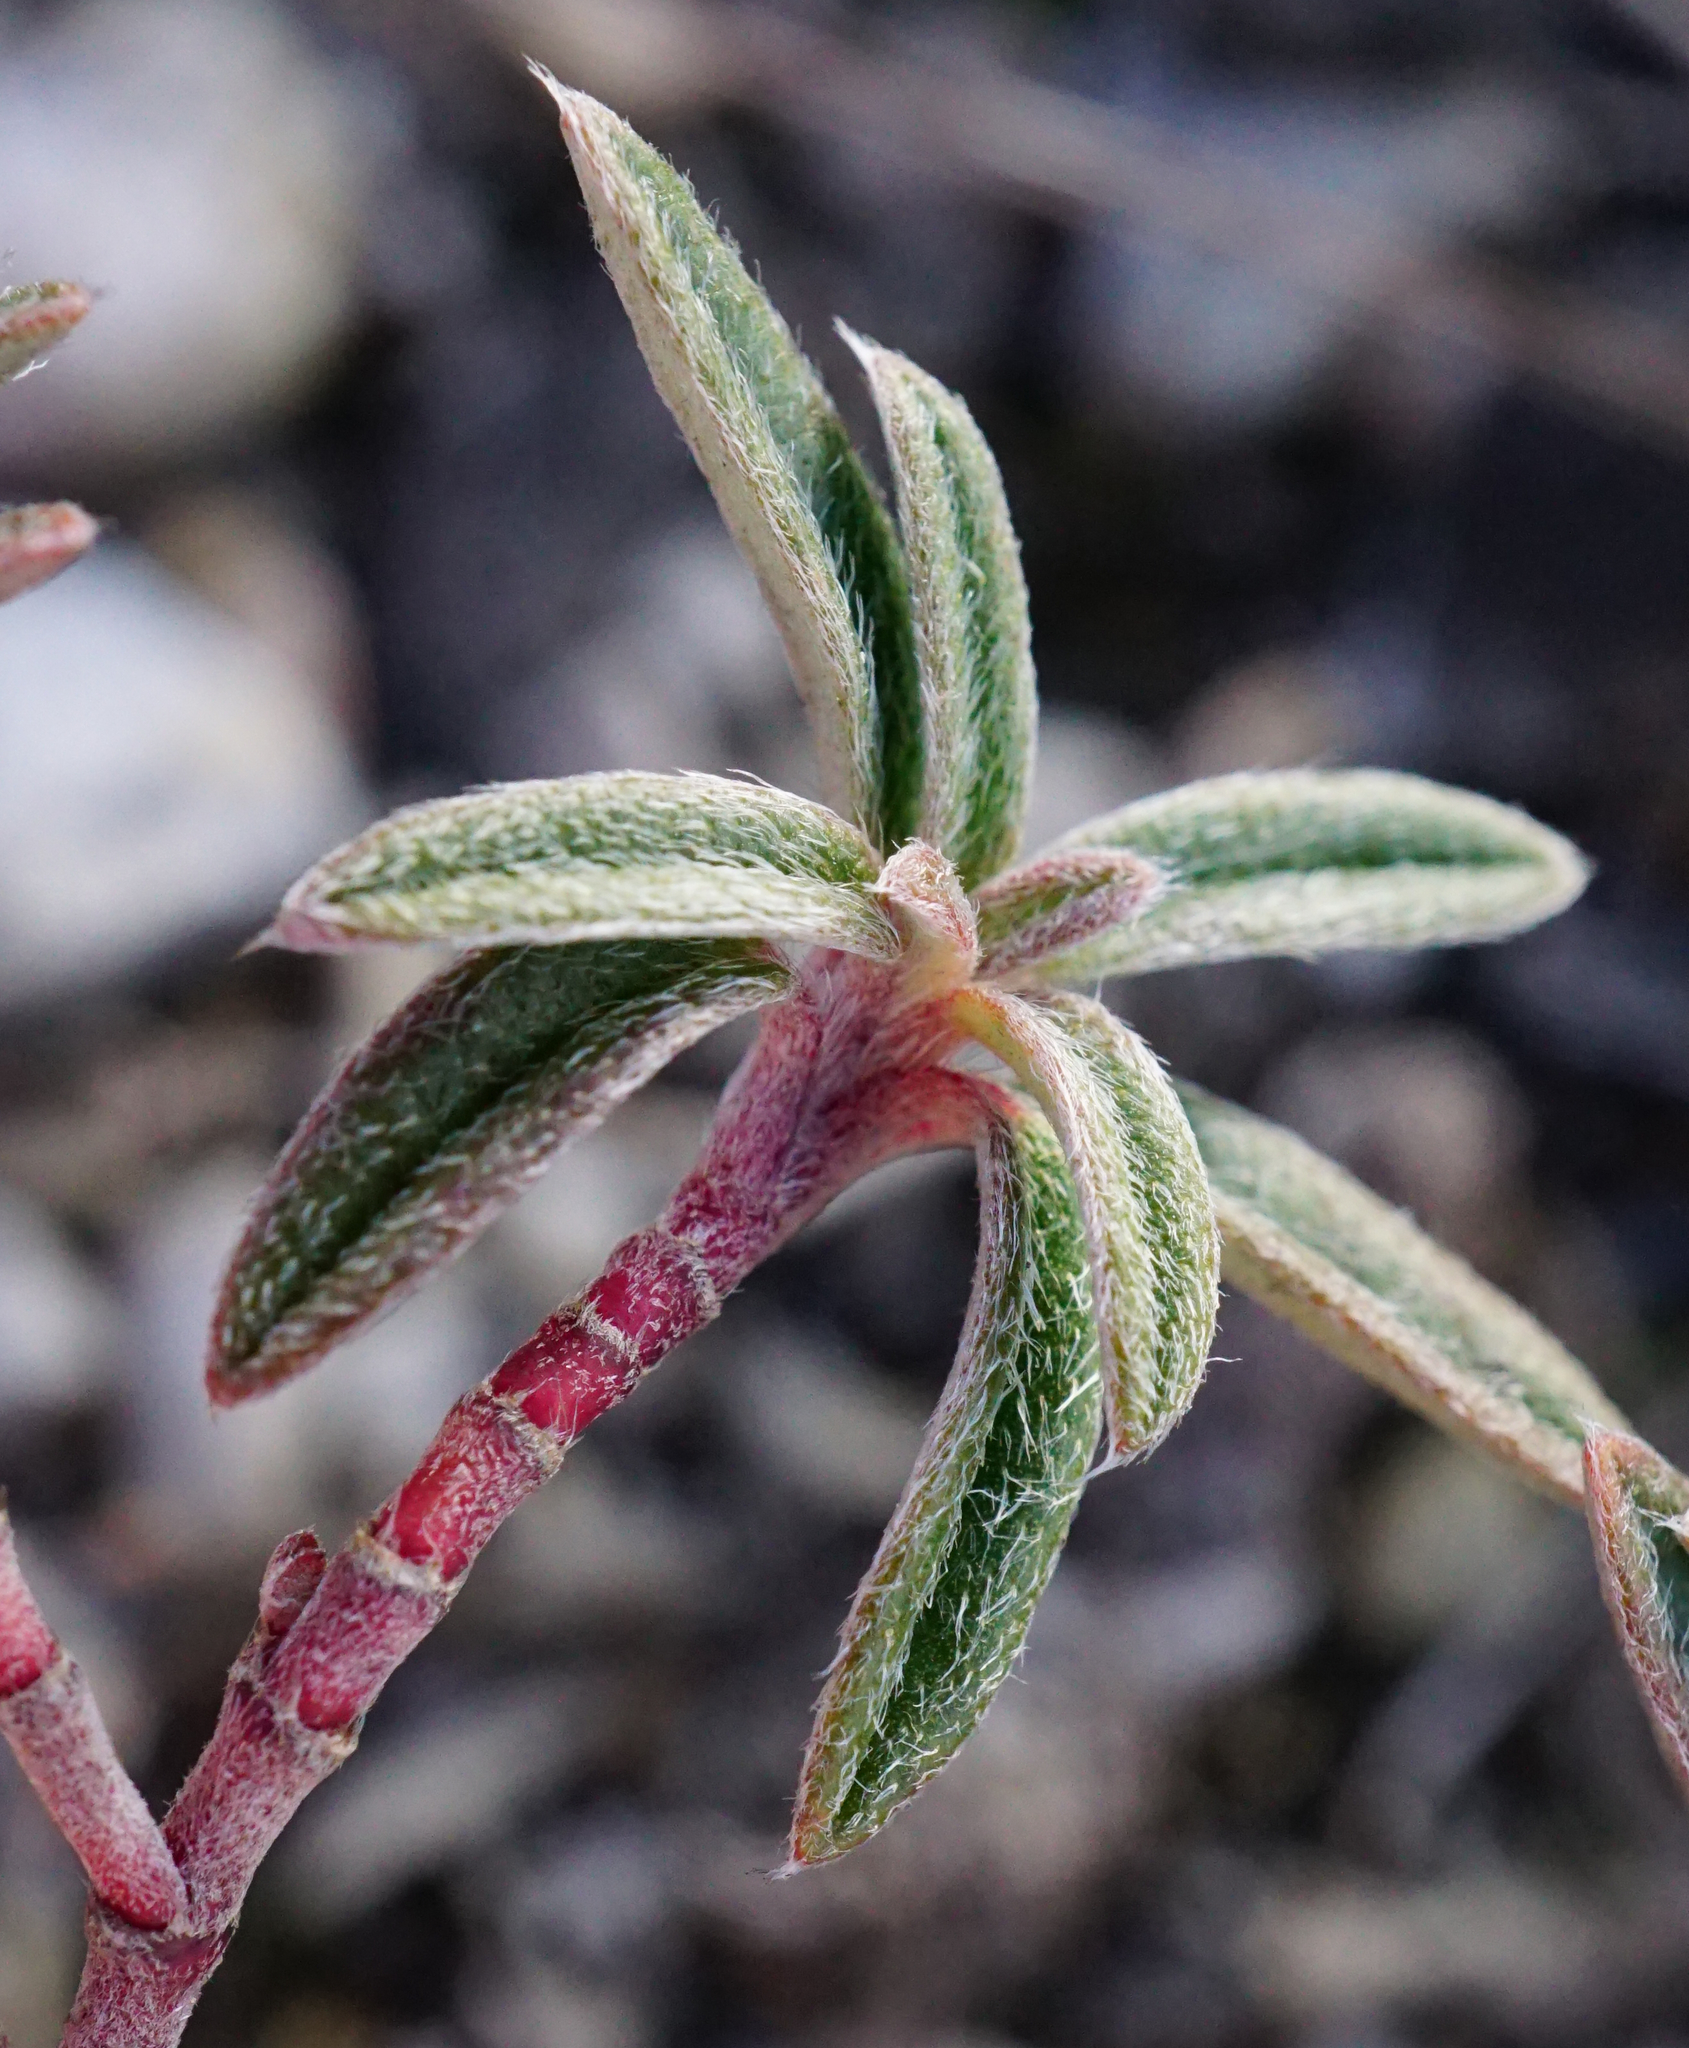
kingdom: Plantae
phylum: Tracheophyta
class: Magnoliopsida
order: Malvales
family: Cistaceae
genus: Helianthemum
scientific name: Helianthemum canum
